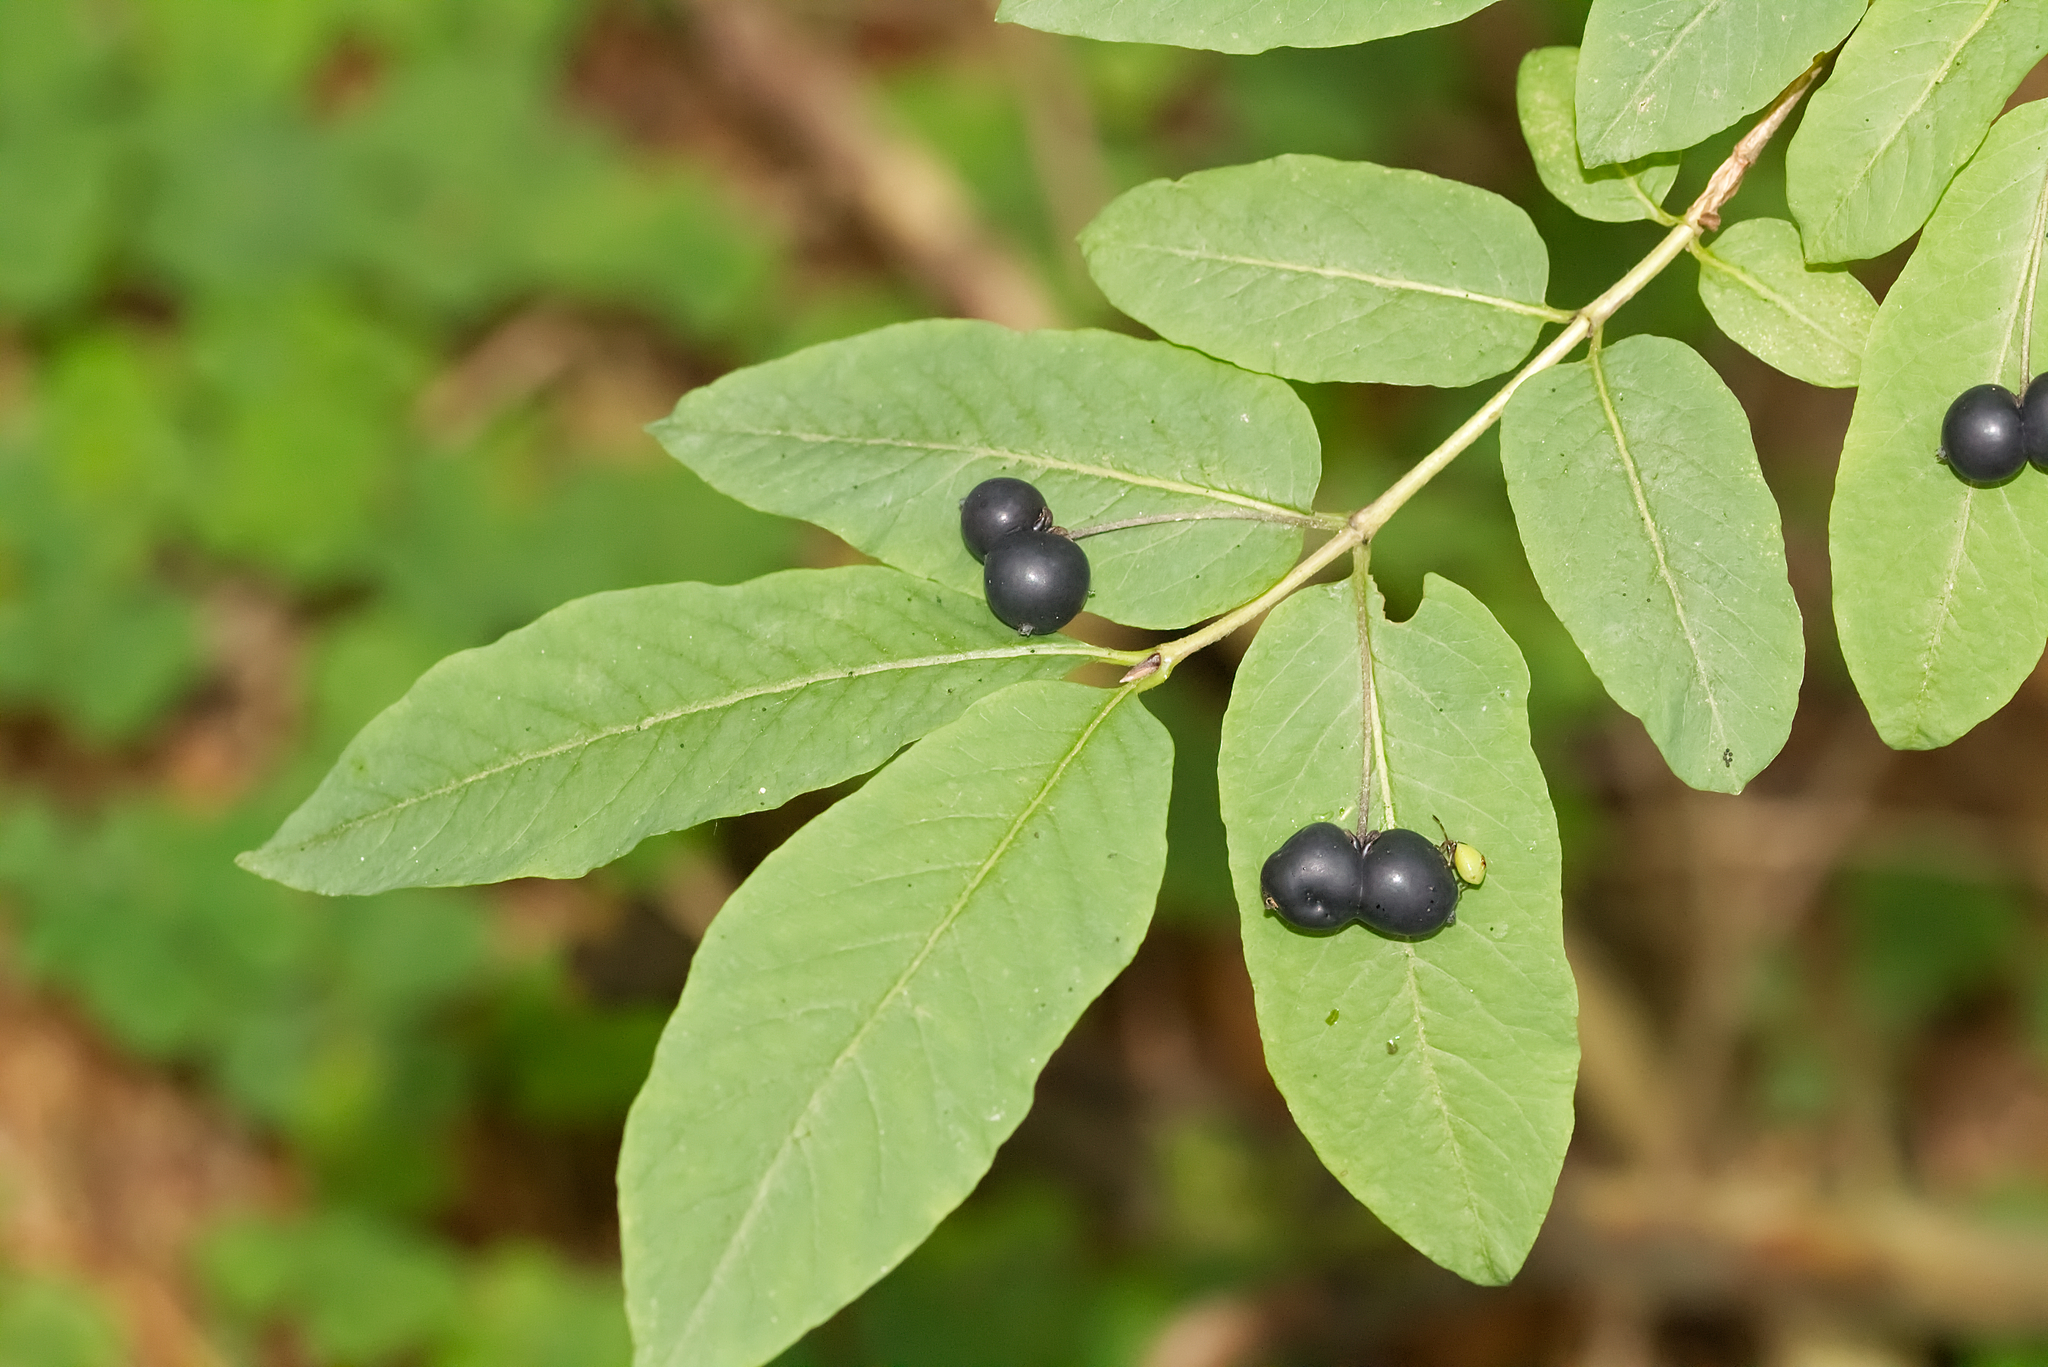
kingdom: Plantae
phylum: Tracheophyta
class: Magnoliopsida
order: Dipsacales
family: Caprifoliaceae
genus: Lonicera
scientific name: Lonicera nigra
